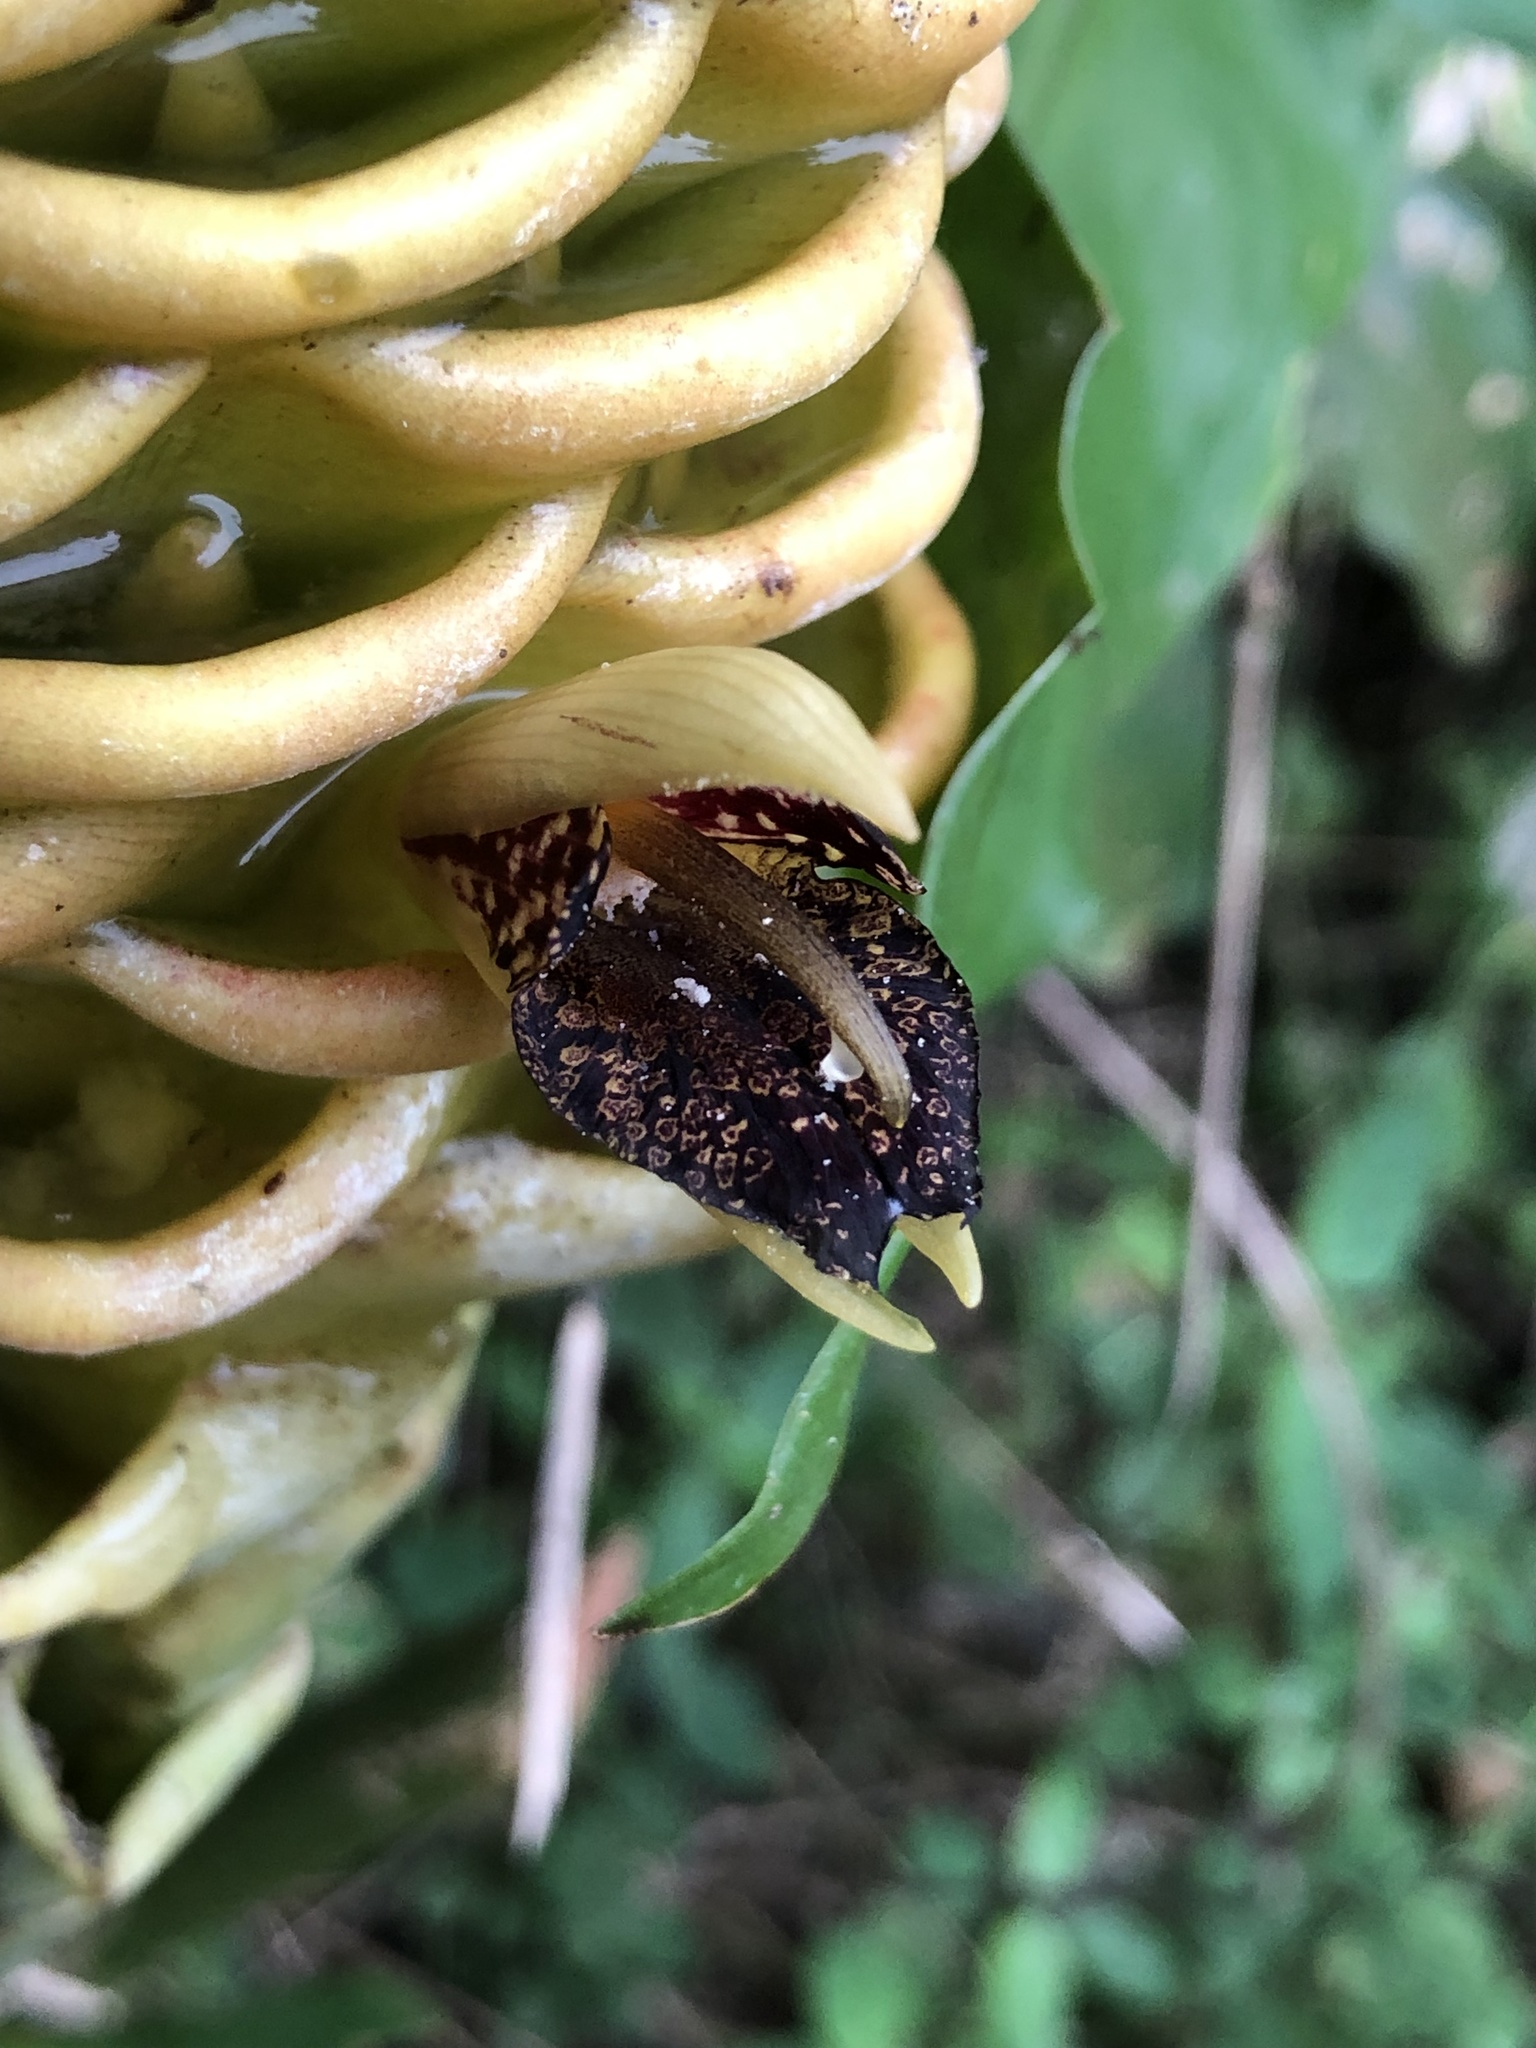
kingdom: Plantae
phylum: Tracheophyta
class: Liliopsida
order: Zingiberales
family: Zingiberaceae
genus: Zingiber
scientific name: Zingiber spectabile
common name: Beehive ginger
